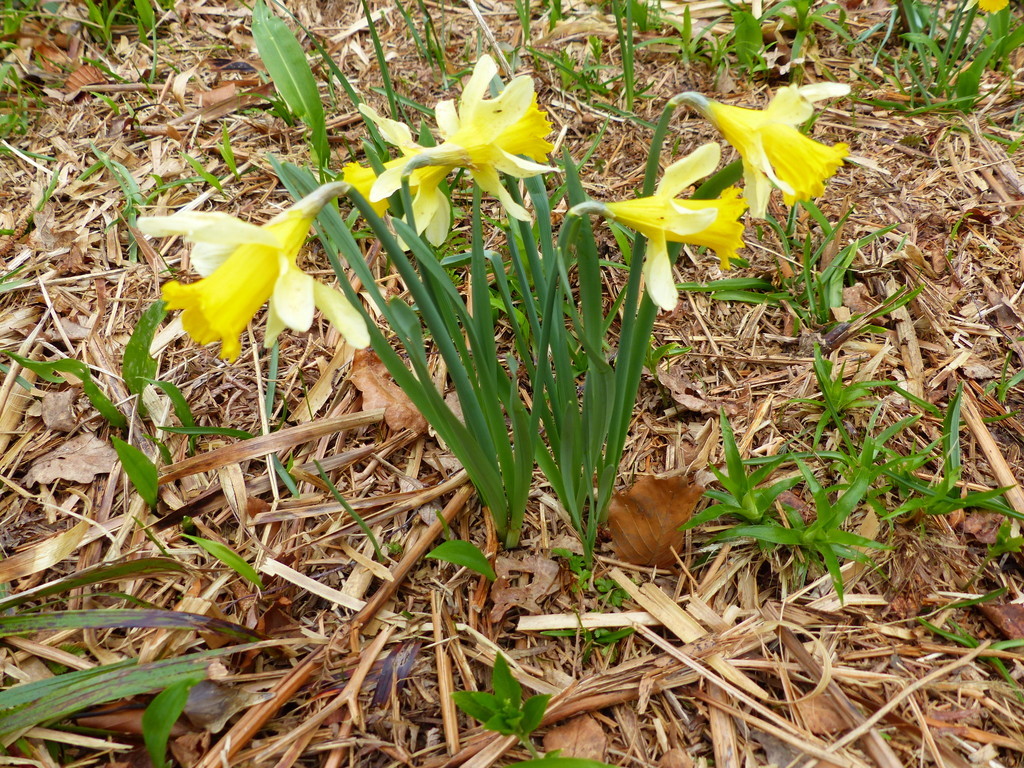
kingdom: Plantae
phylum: Tracheophyta
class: Liliopsida
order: Asparagales
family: Amaryllidaceae
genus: Narcissus
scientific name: Narcissus pseudonarcissus
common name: Daffodil
